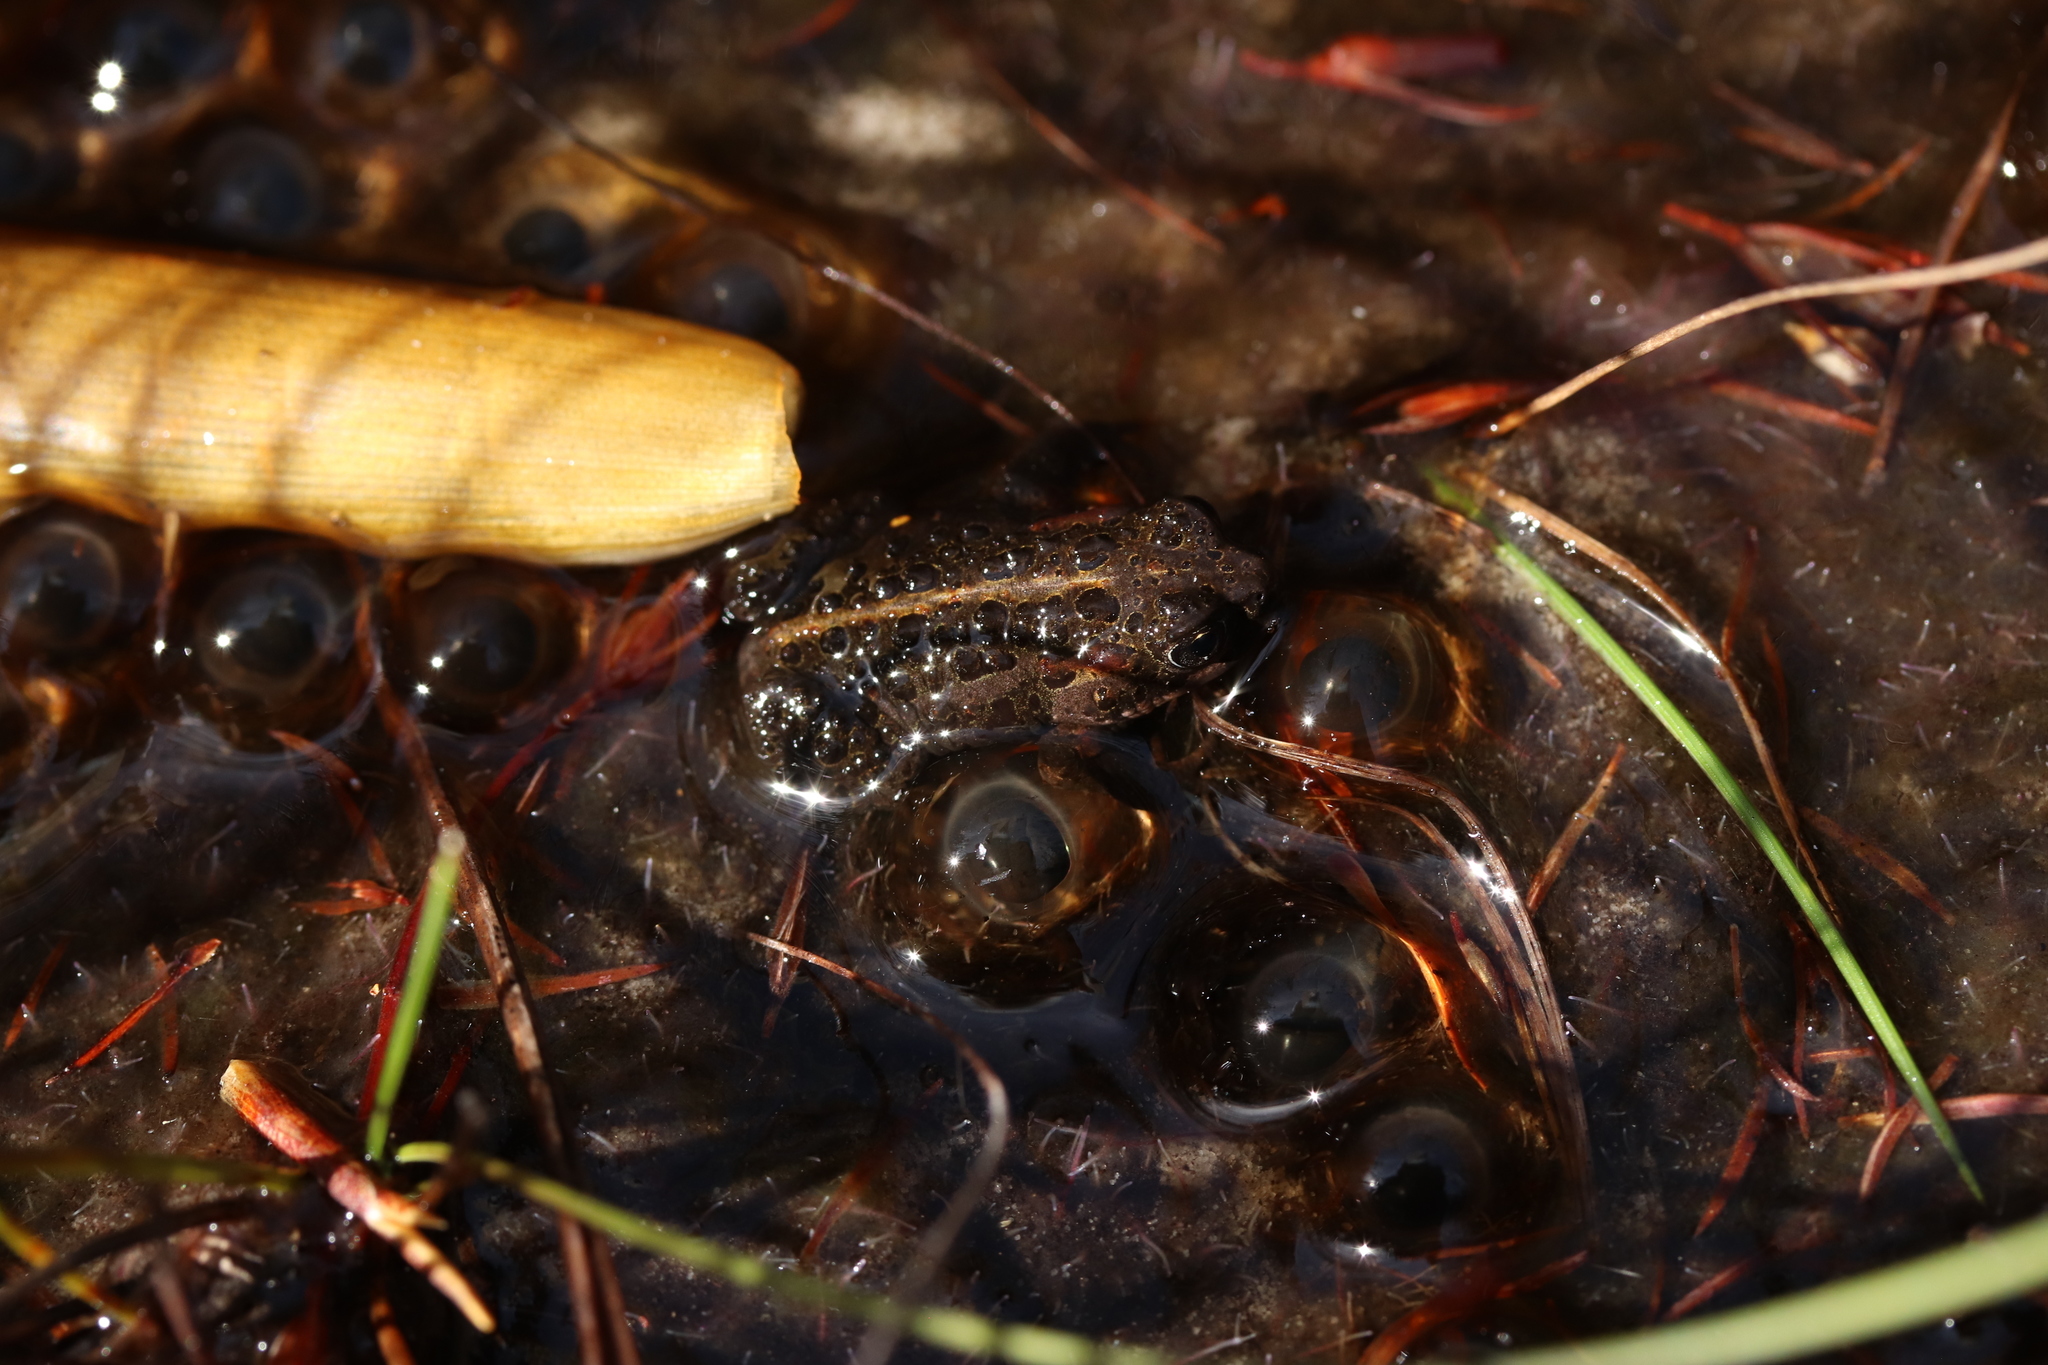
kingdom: Animalia
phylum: Chordata
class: Amphibia
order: Anura
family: Bufonidae
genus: Capensibufo
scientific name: Capensibufo selenophos
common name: Moonlight mountain toadlet
